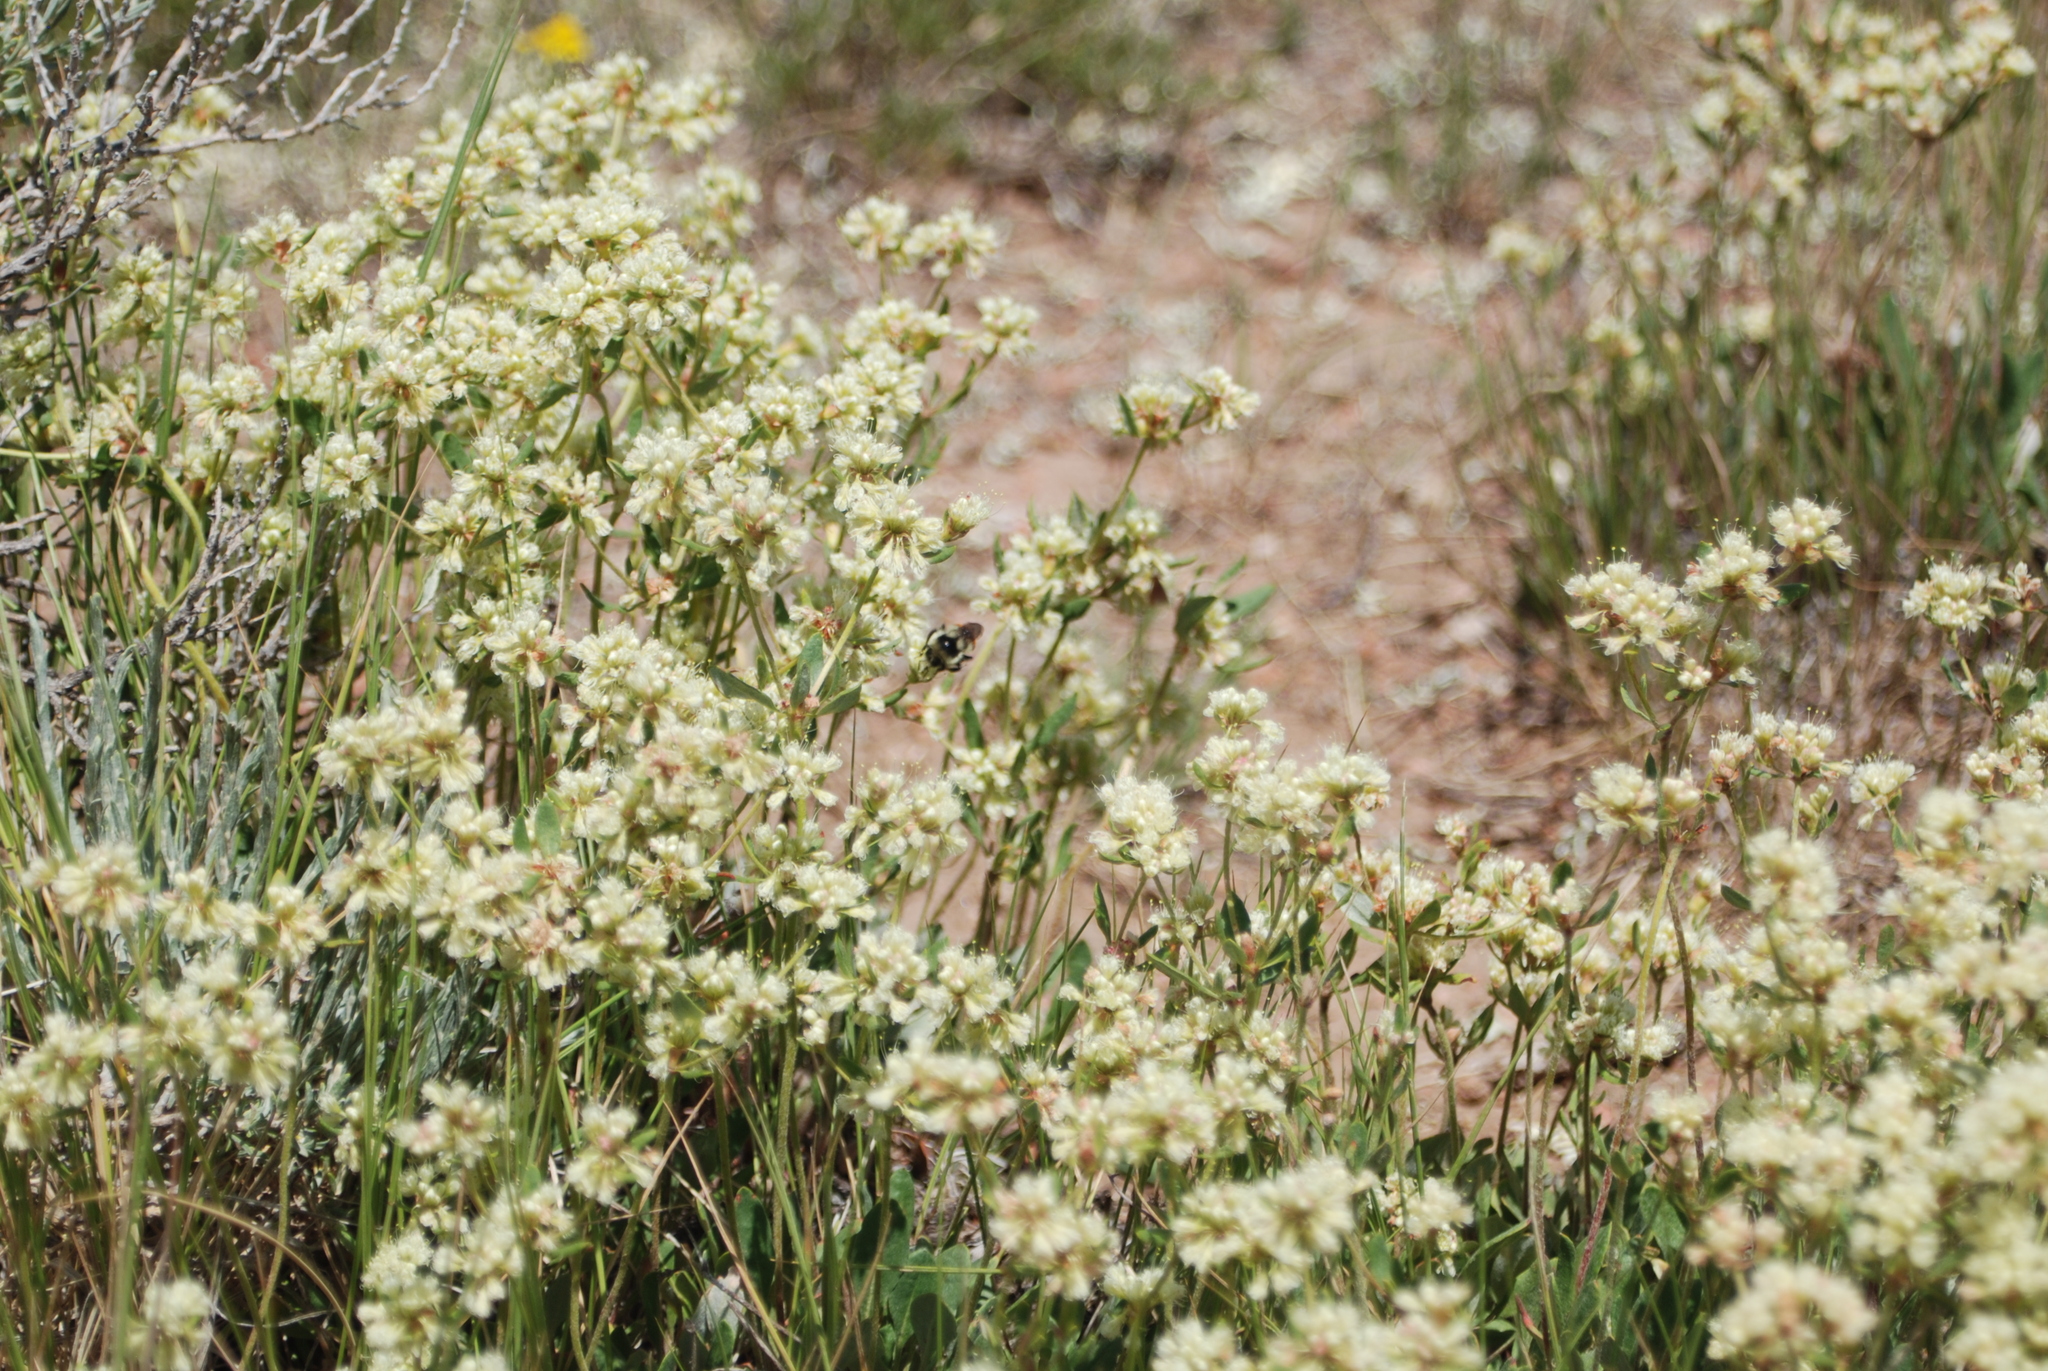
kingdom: Animalia
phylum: Arthropoda
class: Insecta
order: Hymenoptera
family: Apidae
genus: Bombus
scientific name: Bombus bifarius
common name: Two form bumble bee
